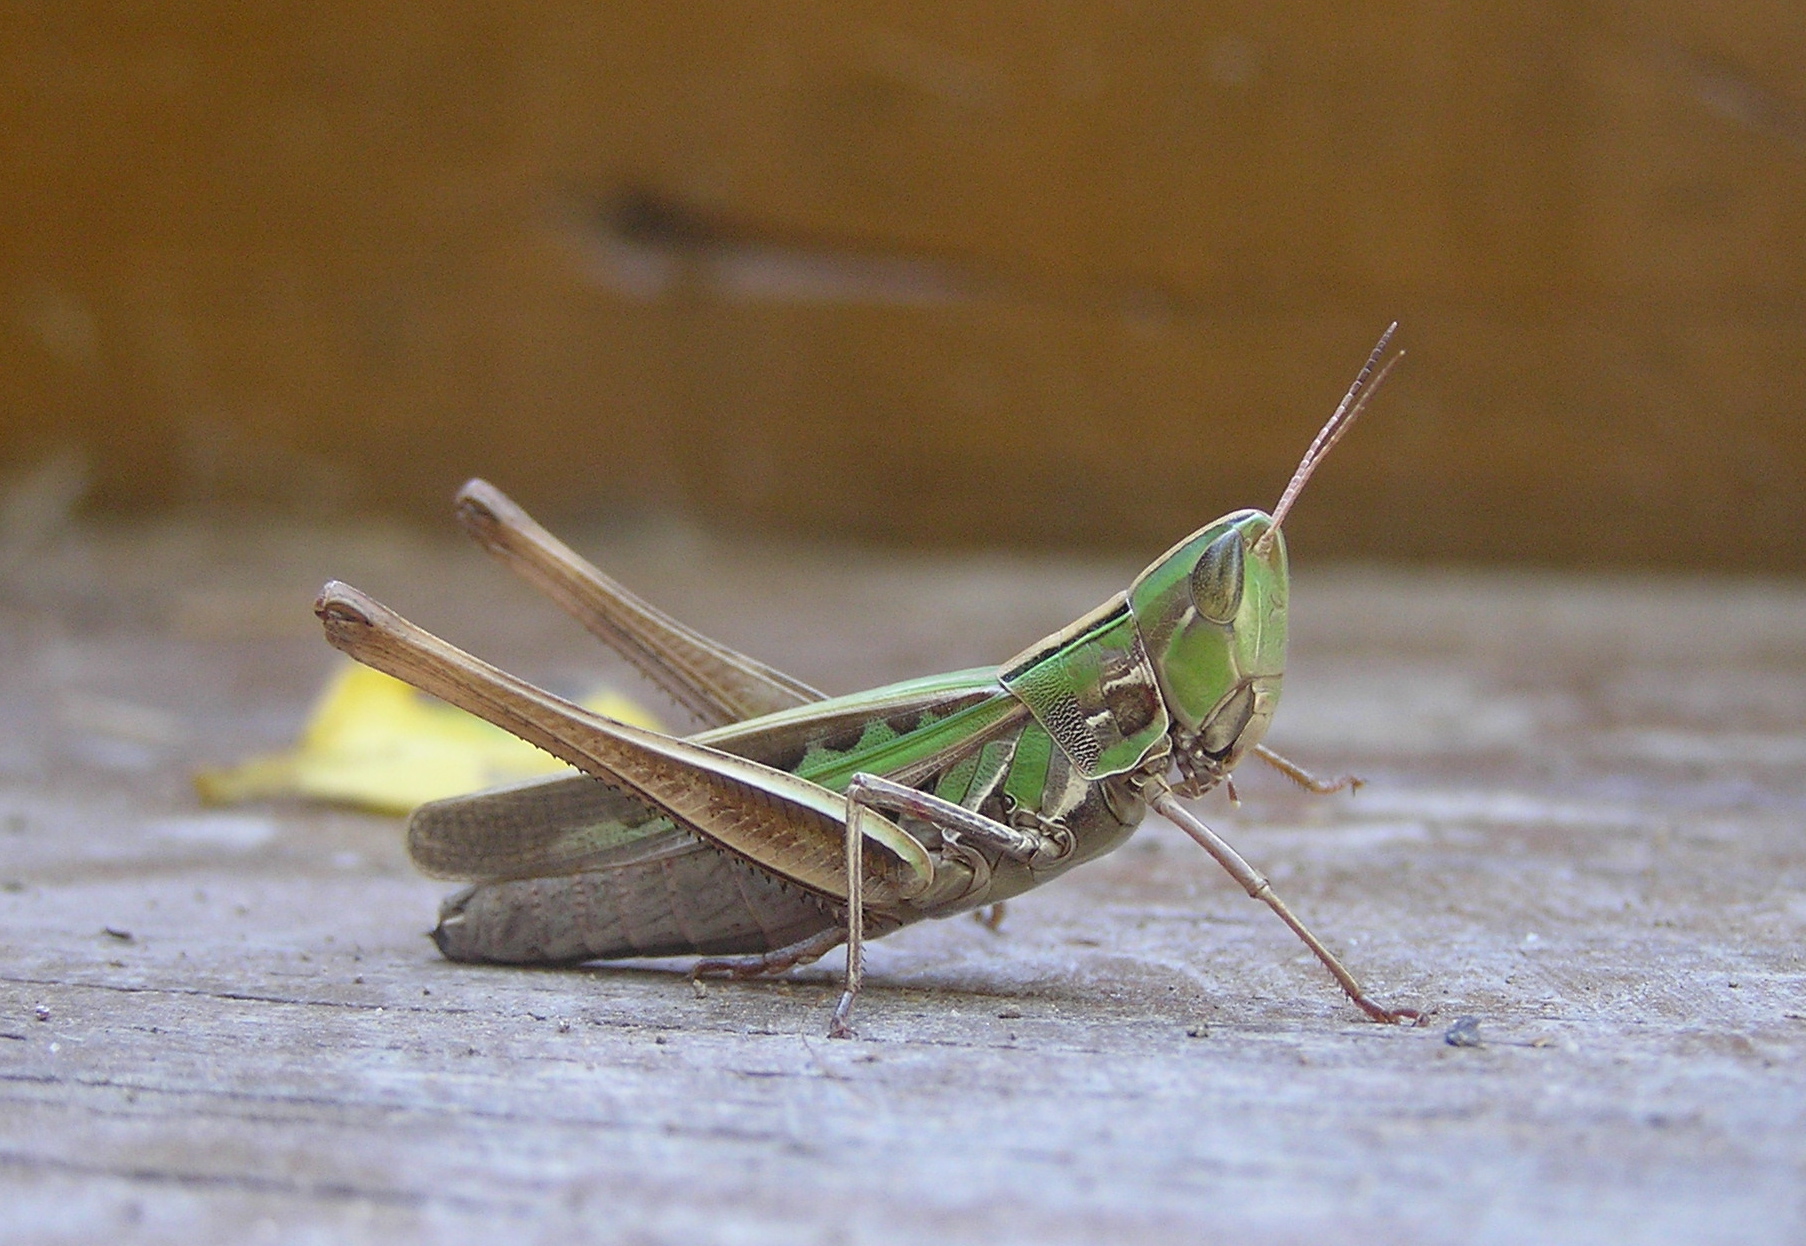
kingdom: Animalia
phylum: Arthropoda
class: Insecta
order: Orthoptera
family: Acrididae
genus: Syrbula
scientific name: Syrbula admirabilis
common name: Handsome grasshopper
